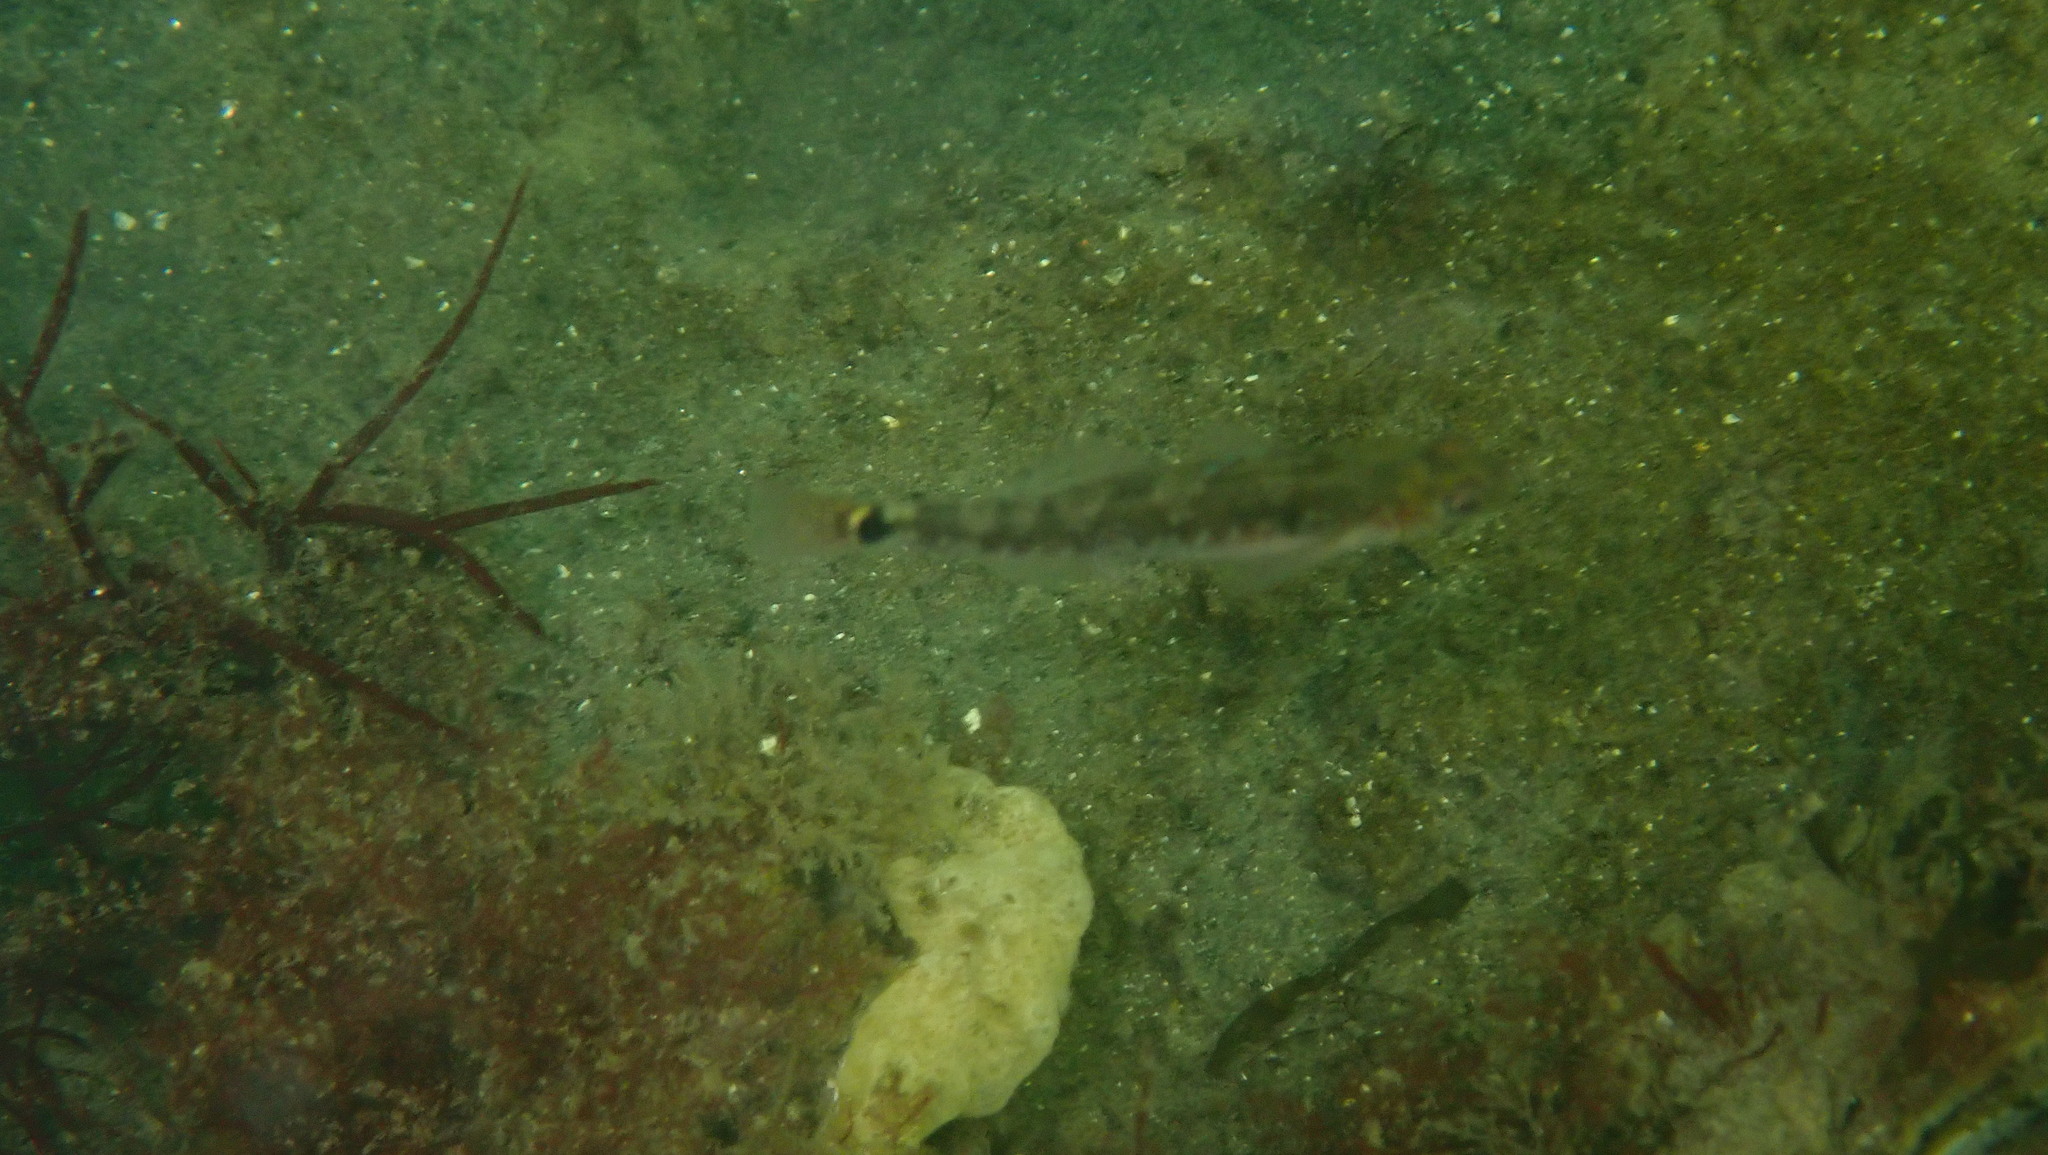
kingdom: Animalia
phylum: Chordata
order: Perciformes
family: Gobiidae
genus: Gobiusculus
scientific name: Gobiusculus flavescens
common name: Two-spotted goby
